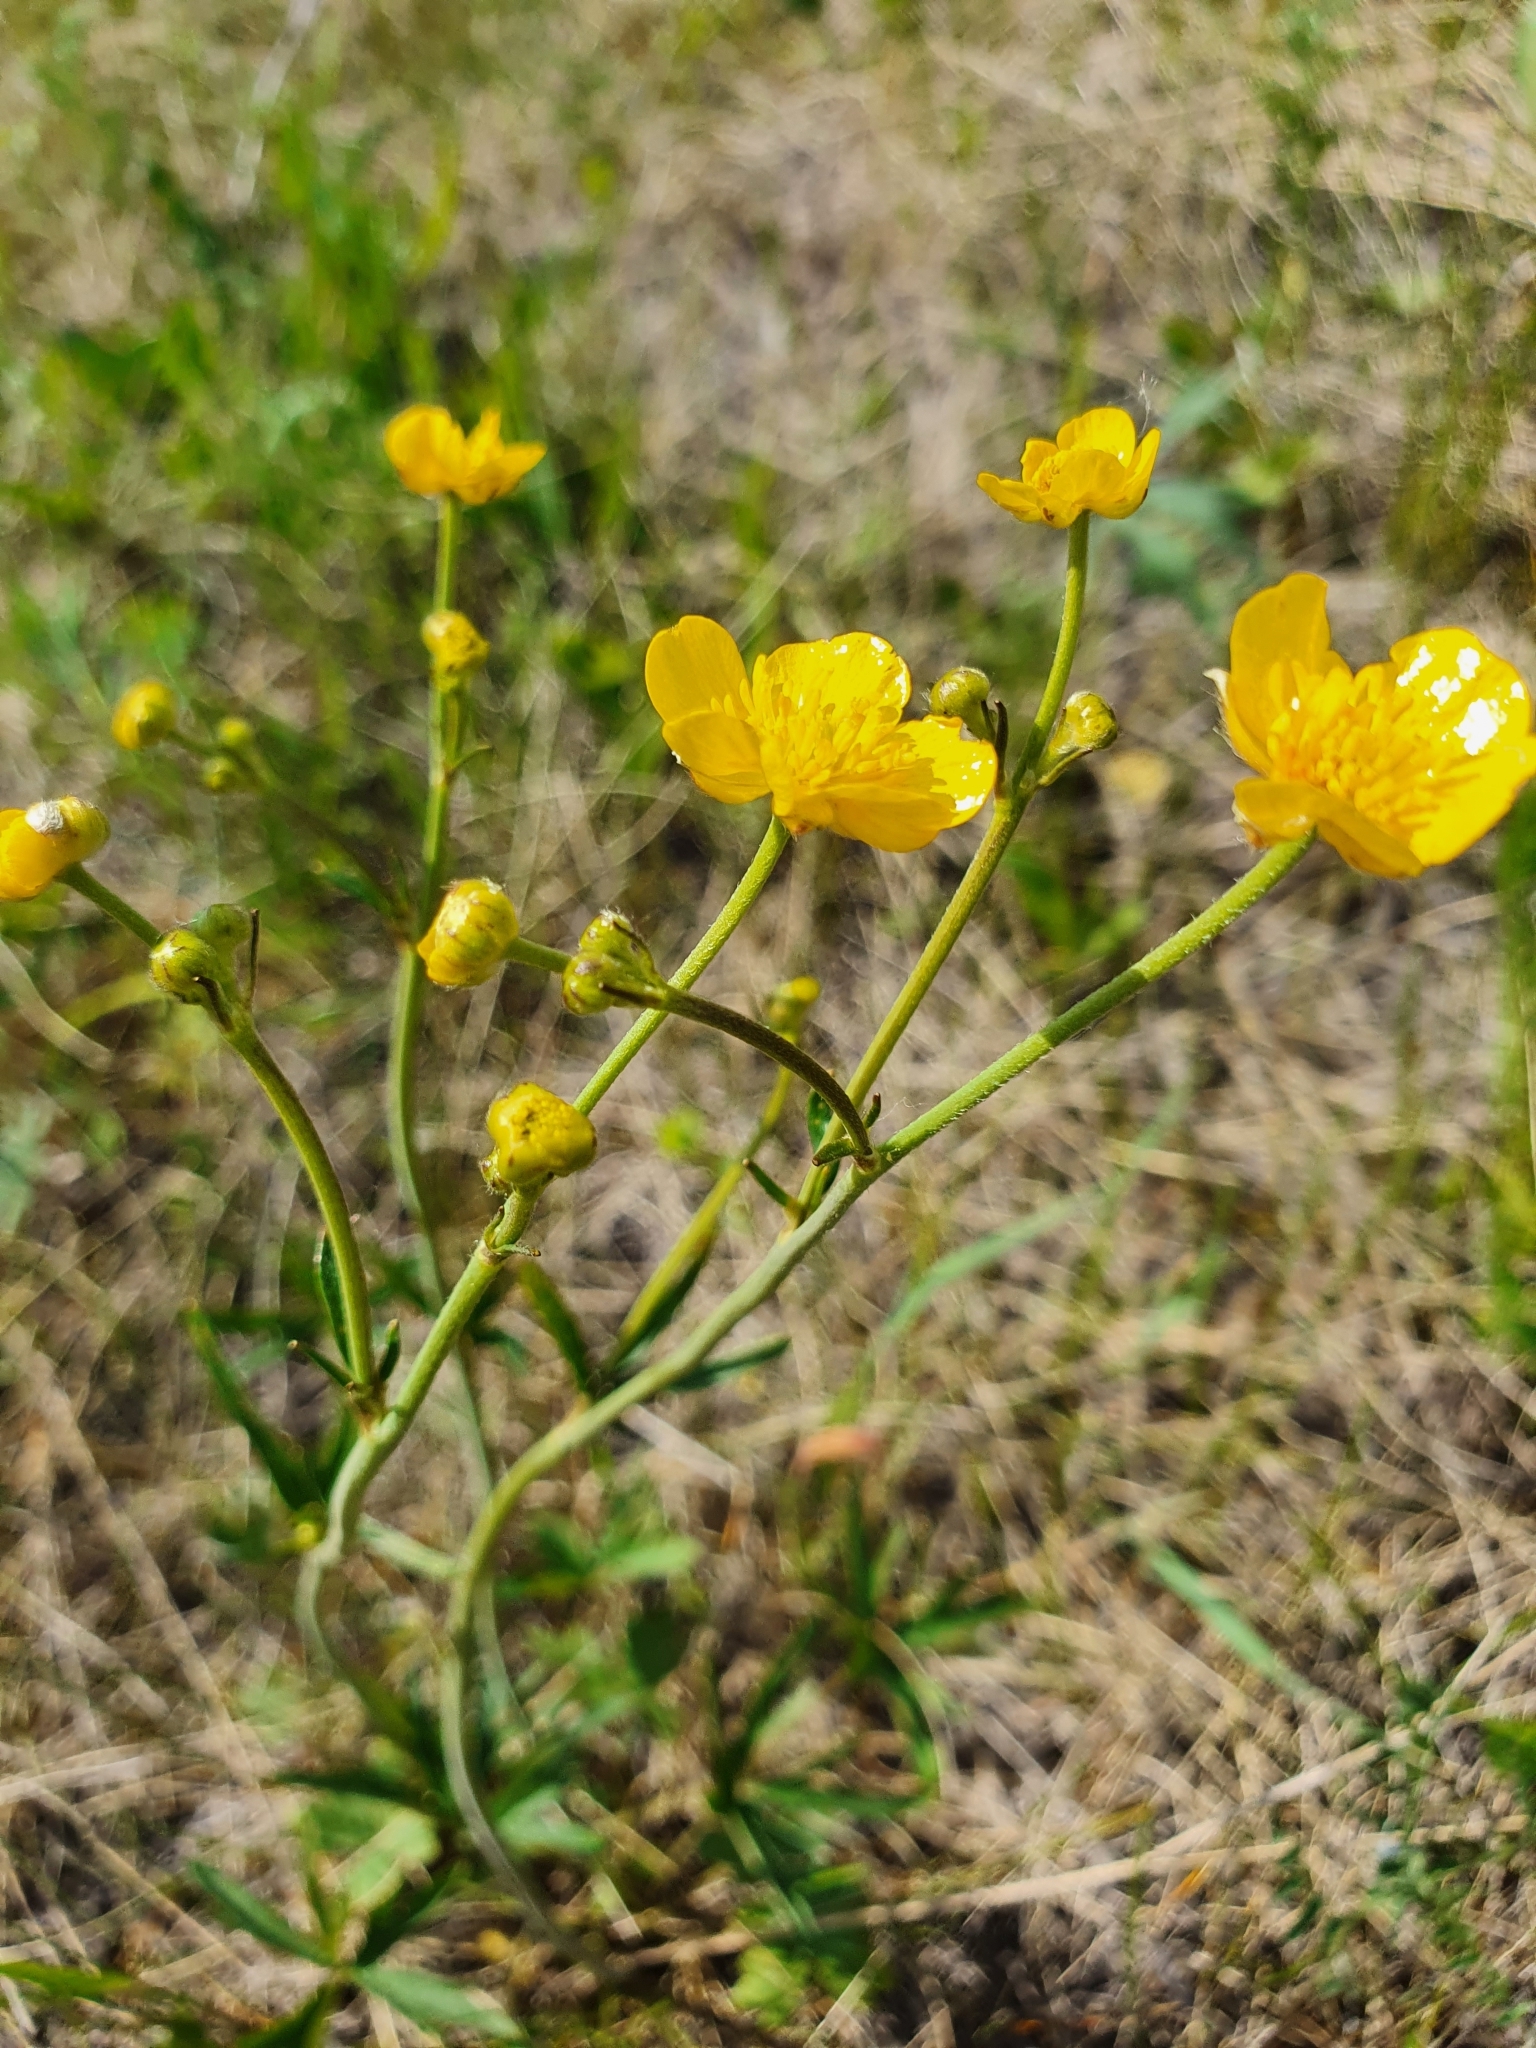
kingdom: Plantae
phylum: Tracheophyta
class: Magnoliopsida
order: Ranunculales
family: Ranunculaceae
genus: Ranunculus
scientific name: Ranunculus acris
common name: Meadow buttercup
